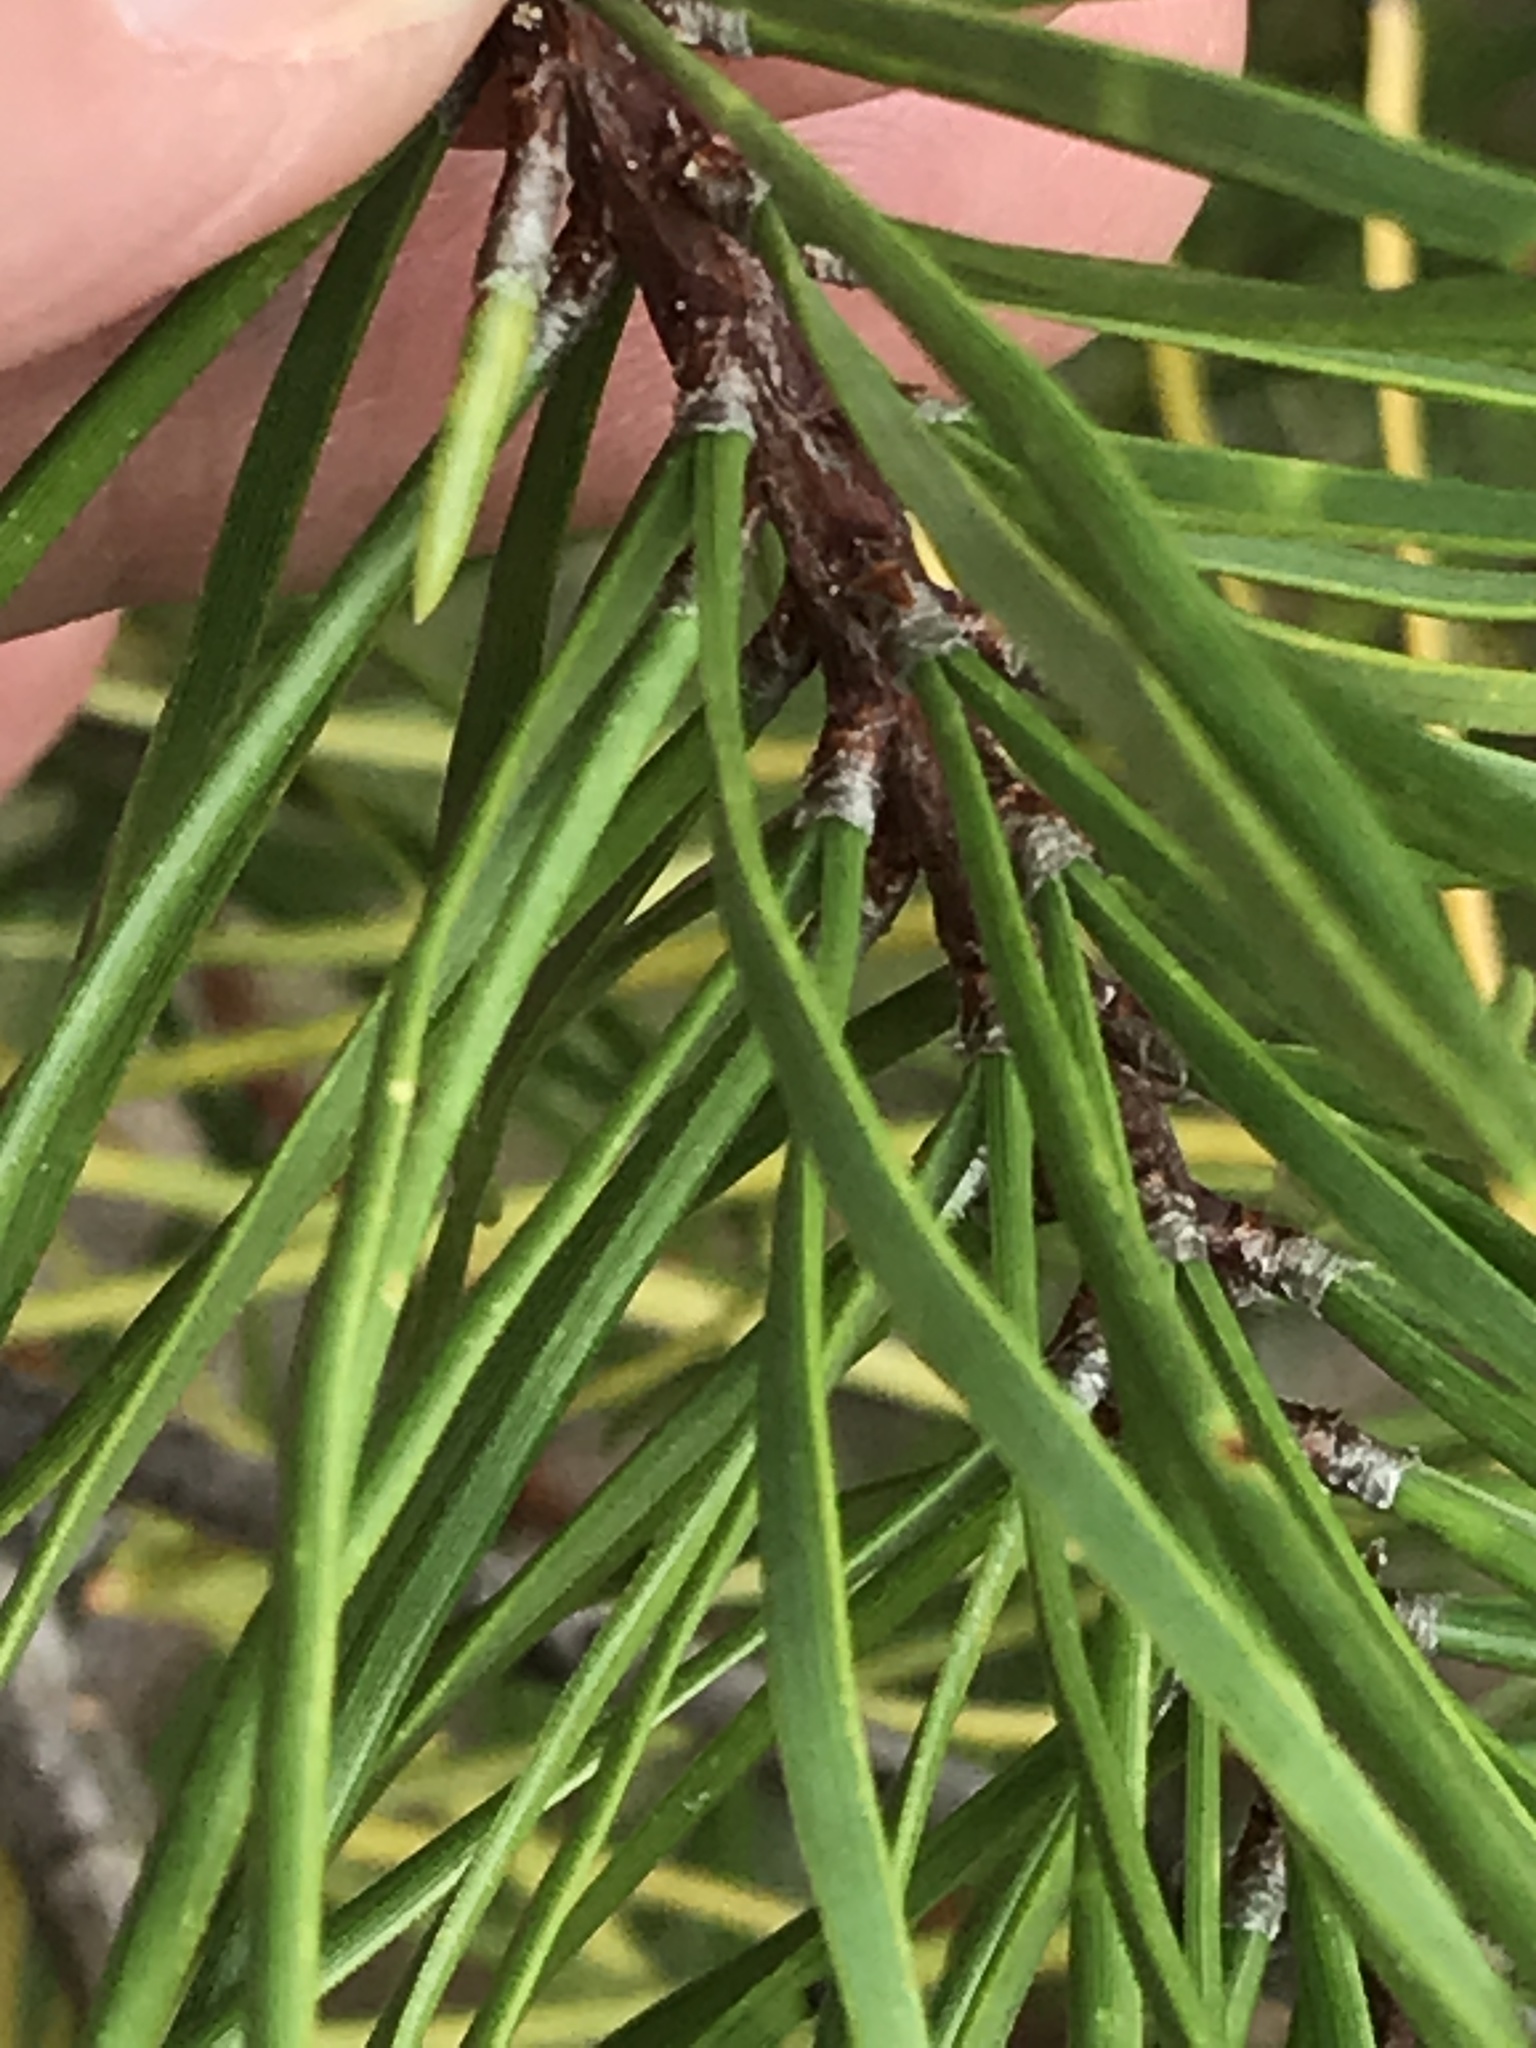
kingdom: Plantae
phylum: Tracheophyta
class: Pinopsida
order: Pinales
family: Pinaceae
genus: Pinus
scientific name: Pinus banksiana
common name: Jack pine
